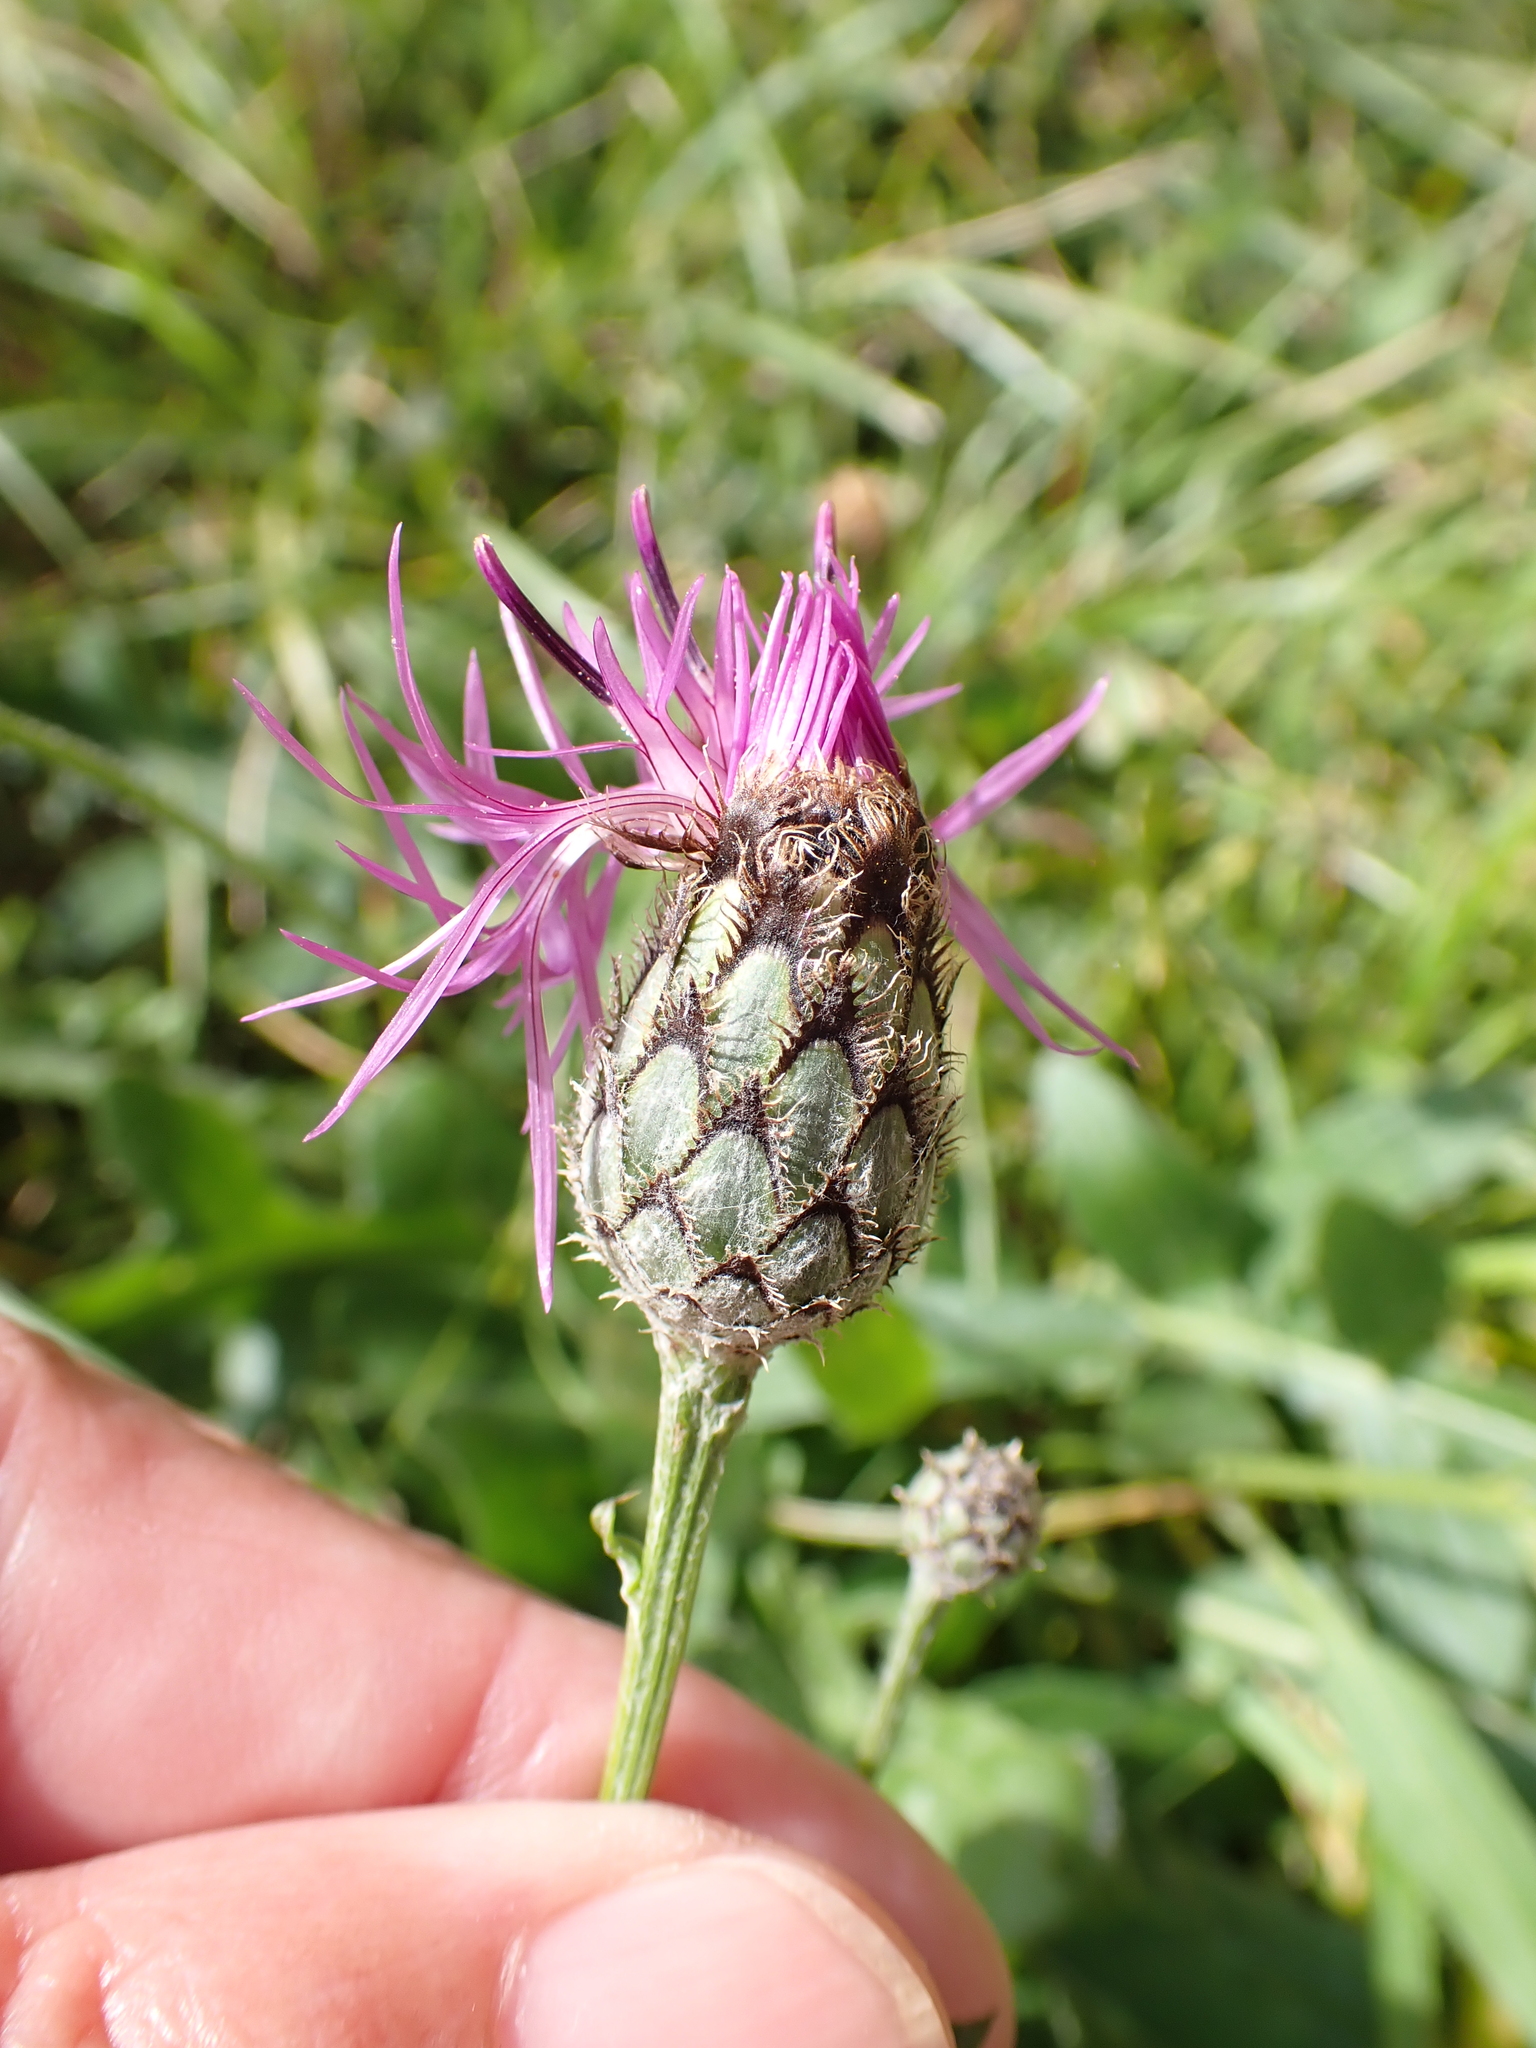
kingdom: Plantae
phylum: Tracheophyta
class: Magnoliopsida
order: Asterales
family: Asteraceae
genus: Centaurea
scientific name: Centaurea scabiosa
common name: Greater knapweed
